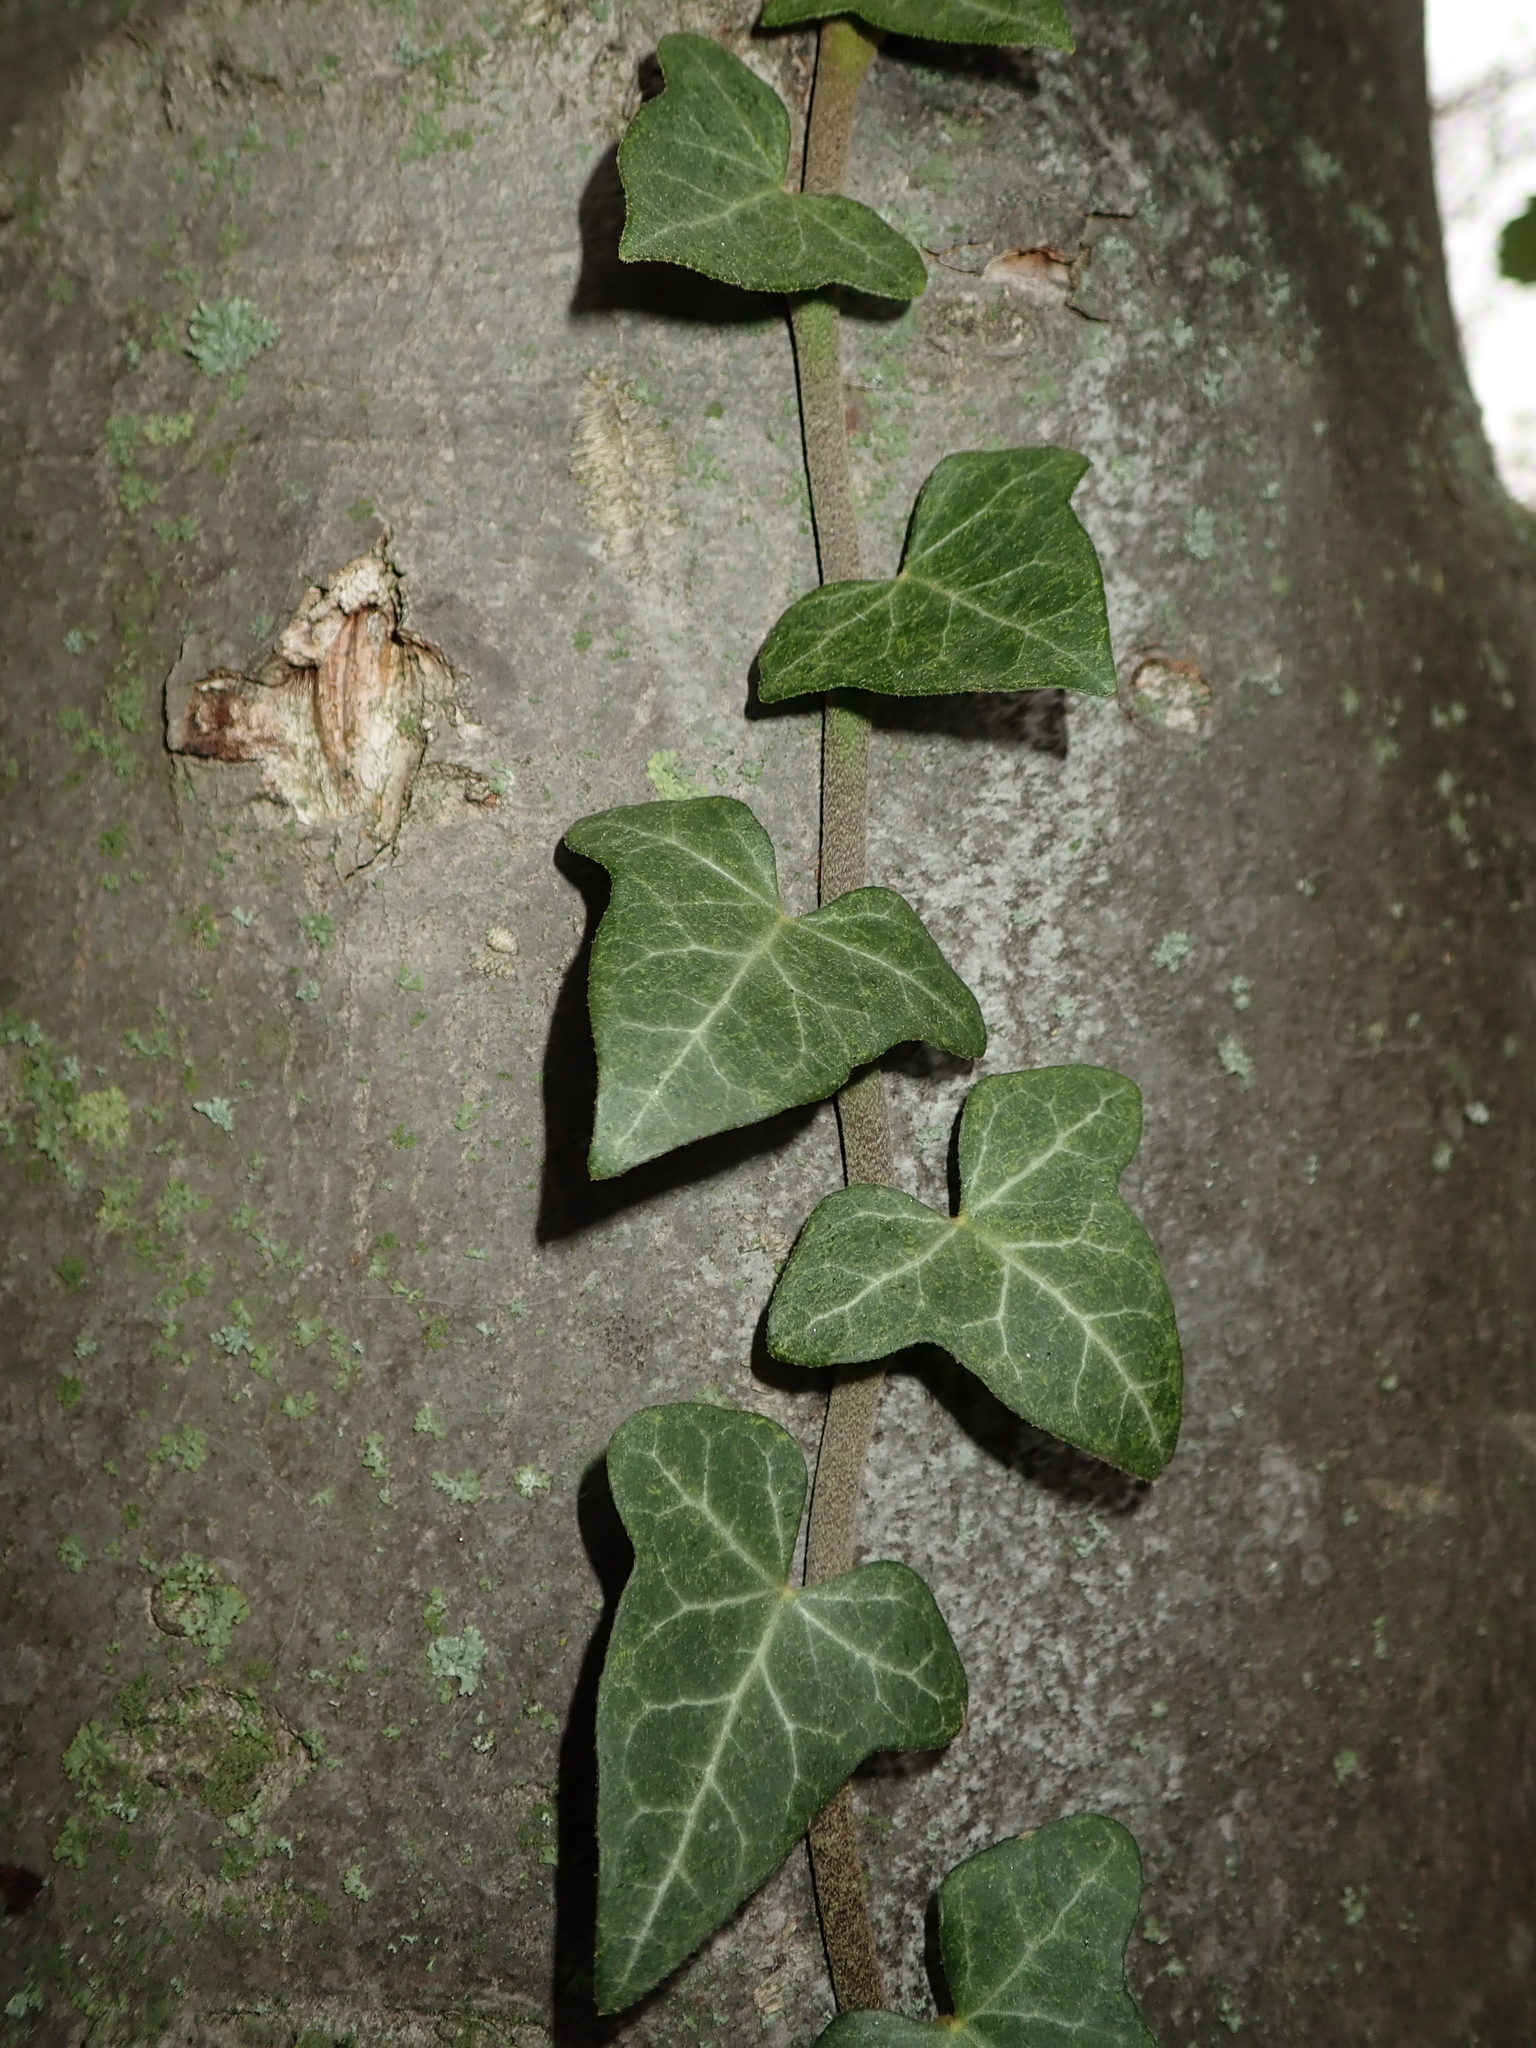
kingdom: Plantae
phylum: Tracheophyta
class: Magnoliopsida
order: Apiales
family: Araliaceae
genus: Hedera
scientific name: Hedera helix
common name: Ivy
